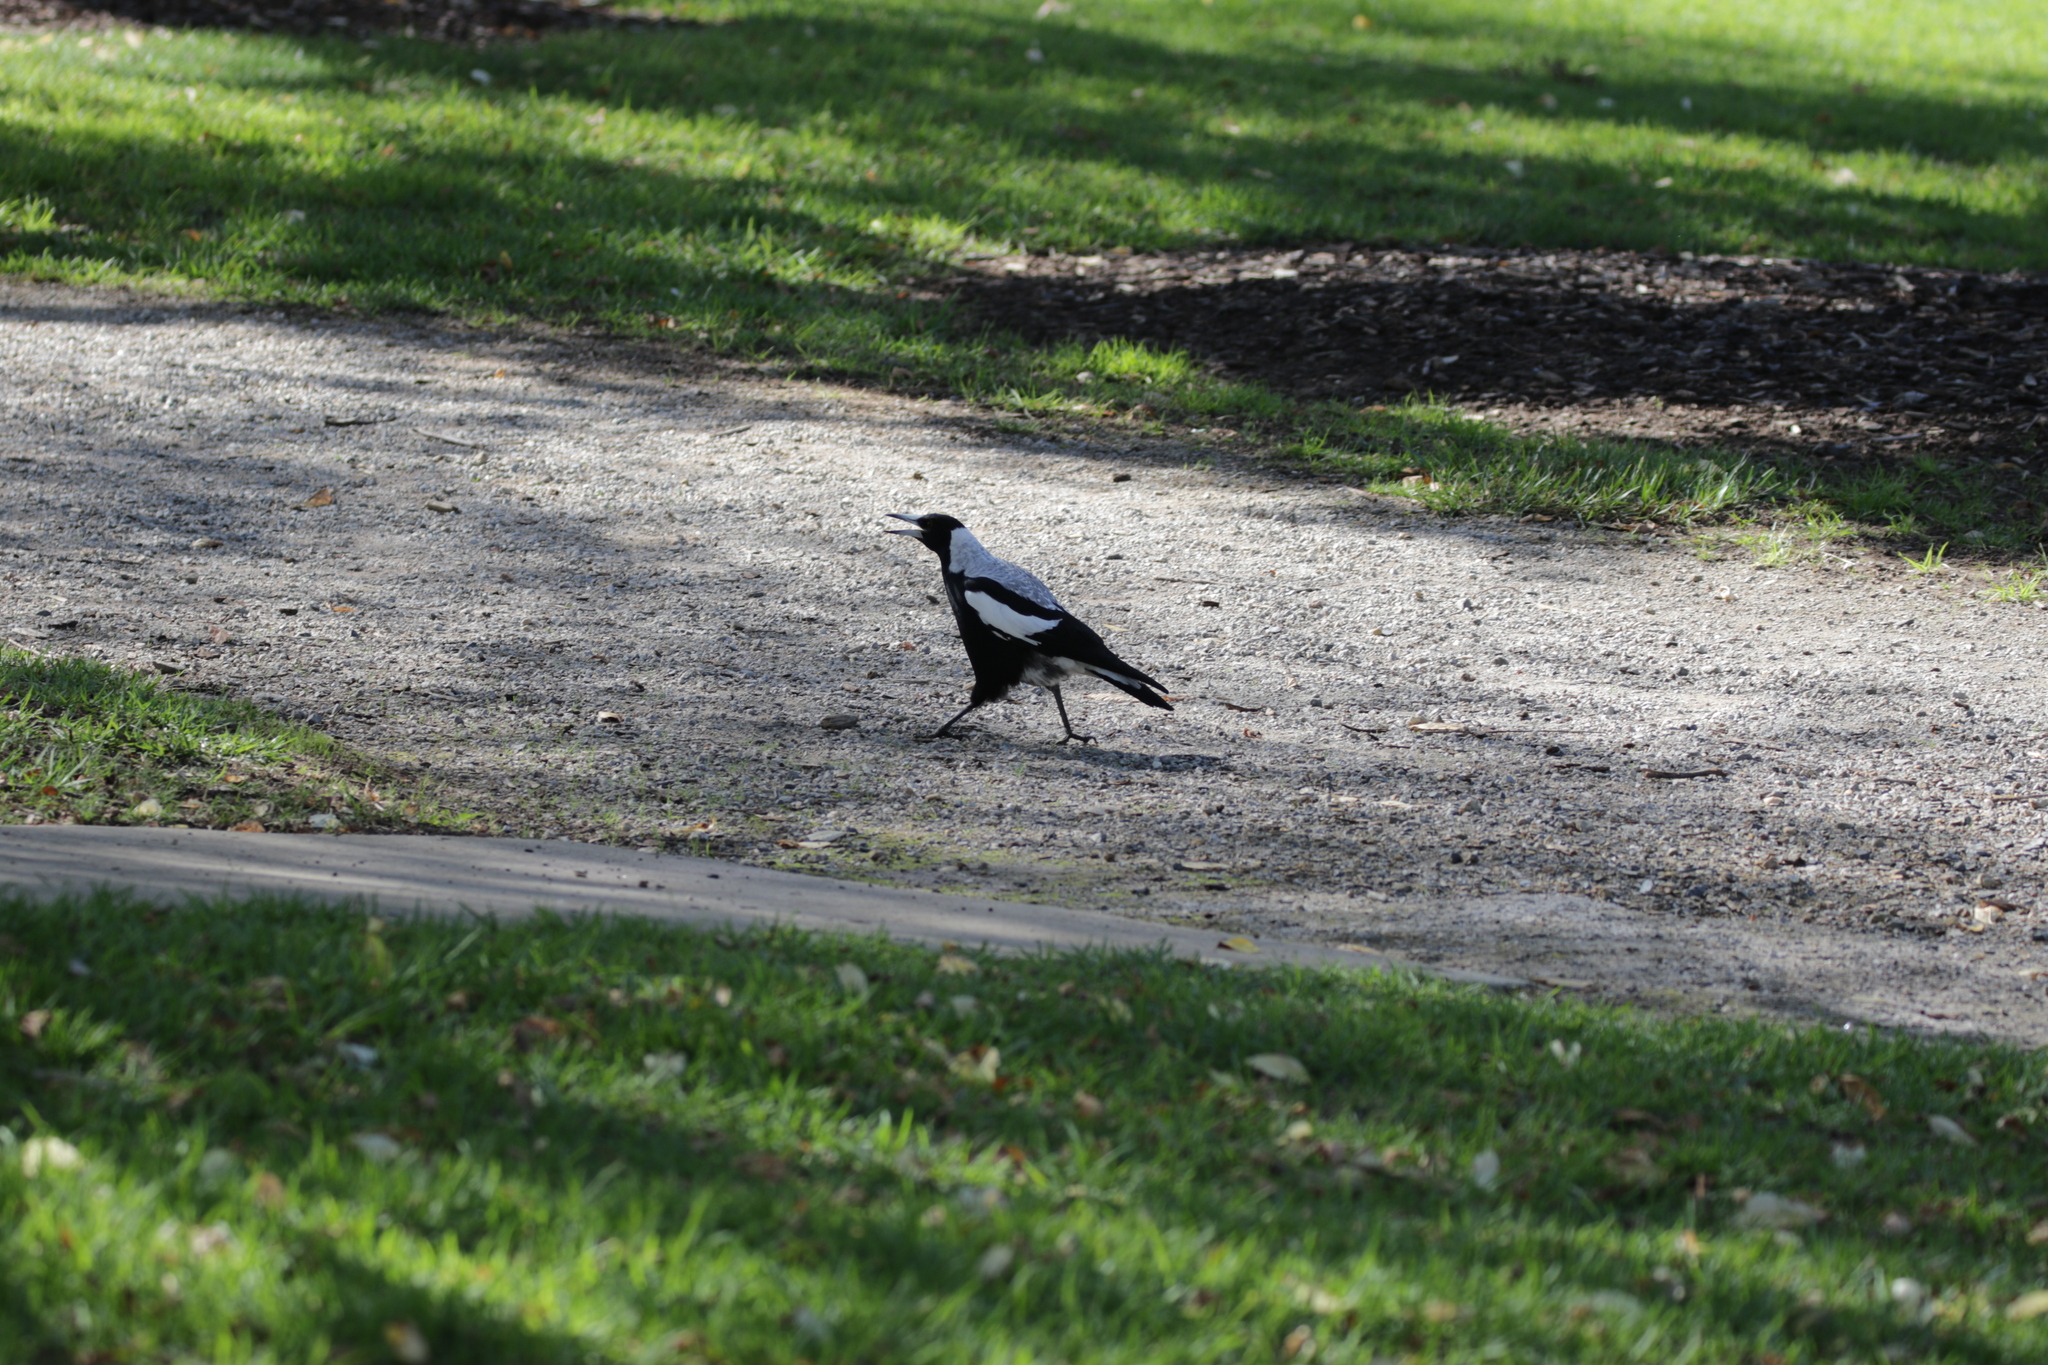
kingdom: Animalia
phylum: Chordata
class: Aves
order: Passeriformes
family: Cracticidae
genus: Gymnorhina
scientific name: Gymnorhina tibicen
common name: Australian magpie
